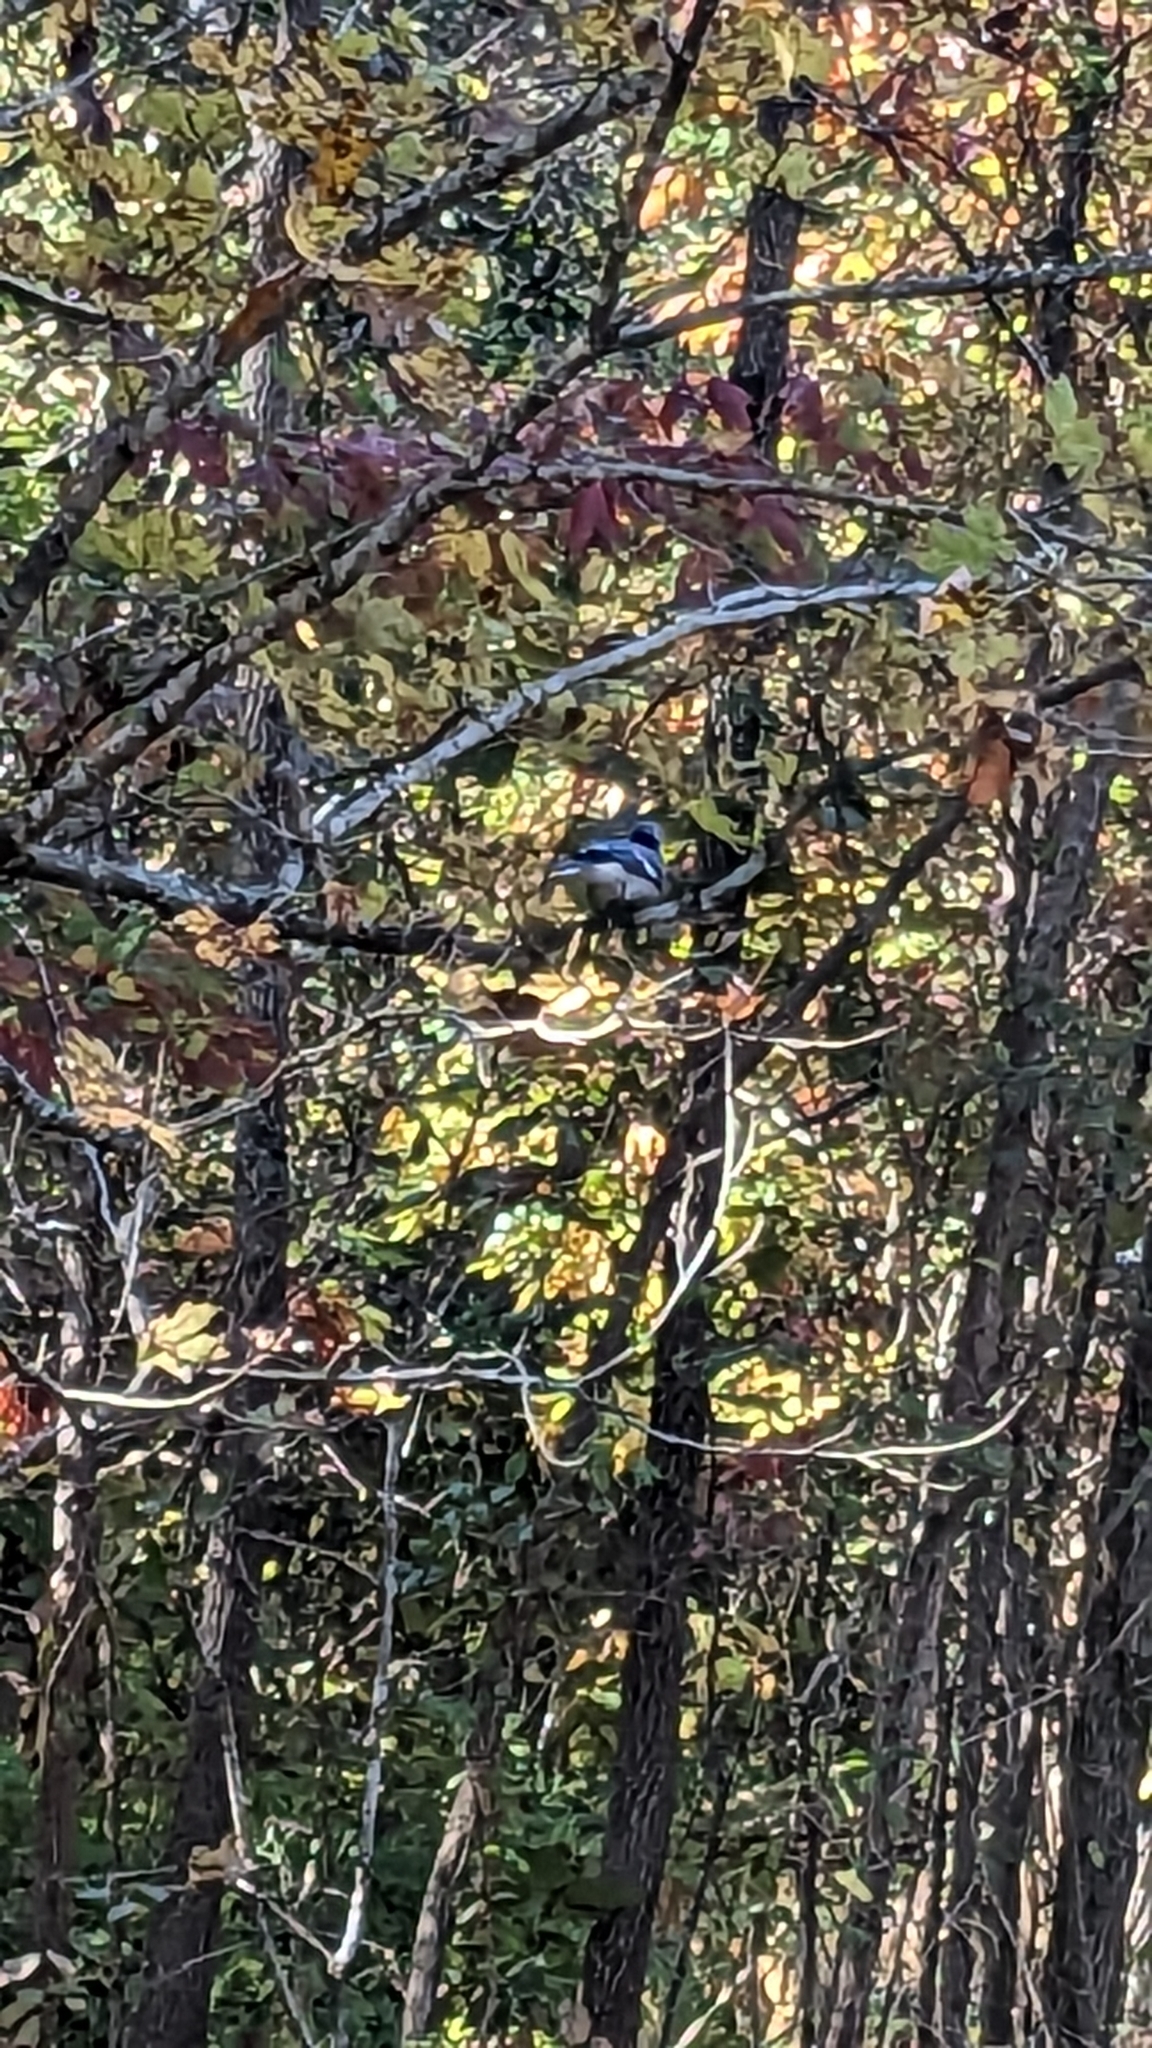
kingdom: Animalia
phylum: Chordata
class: Aves
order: Passeriformes
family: Corvidae
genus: Cyanocitta
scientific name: Cyanocitta cristata
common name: Blue jay
